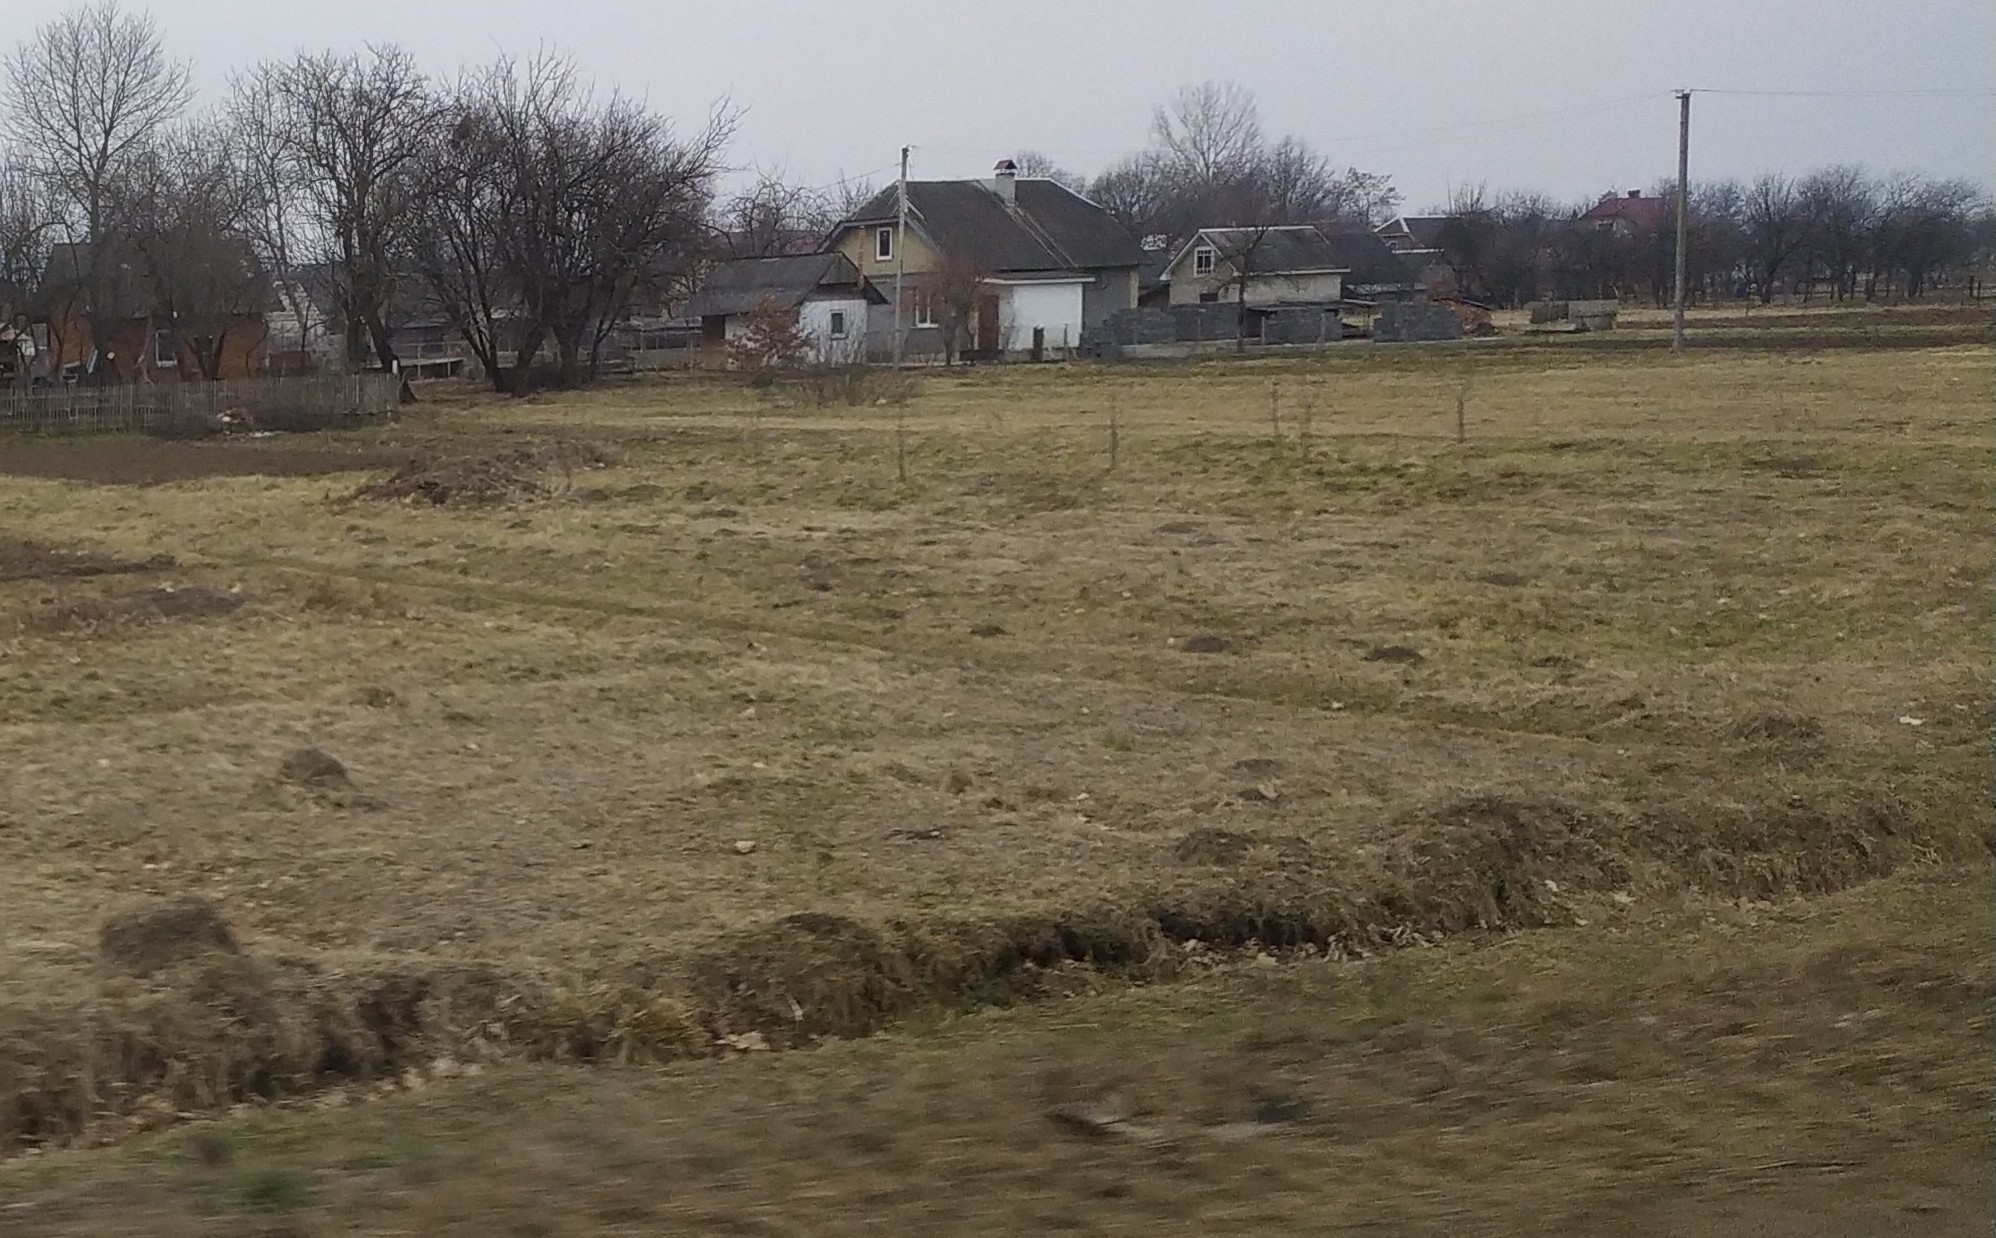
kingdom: Animalia
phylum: Chordata
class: Mammalia
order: Soricomorpha
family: Talpidae
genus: Talpa
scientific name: Talpa europaea
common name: European mole
